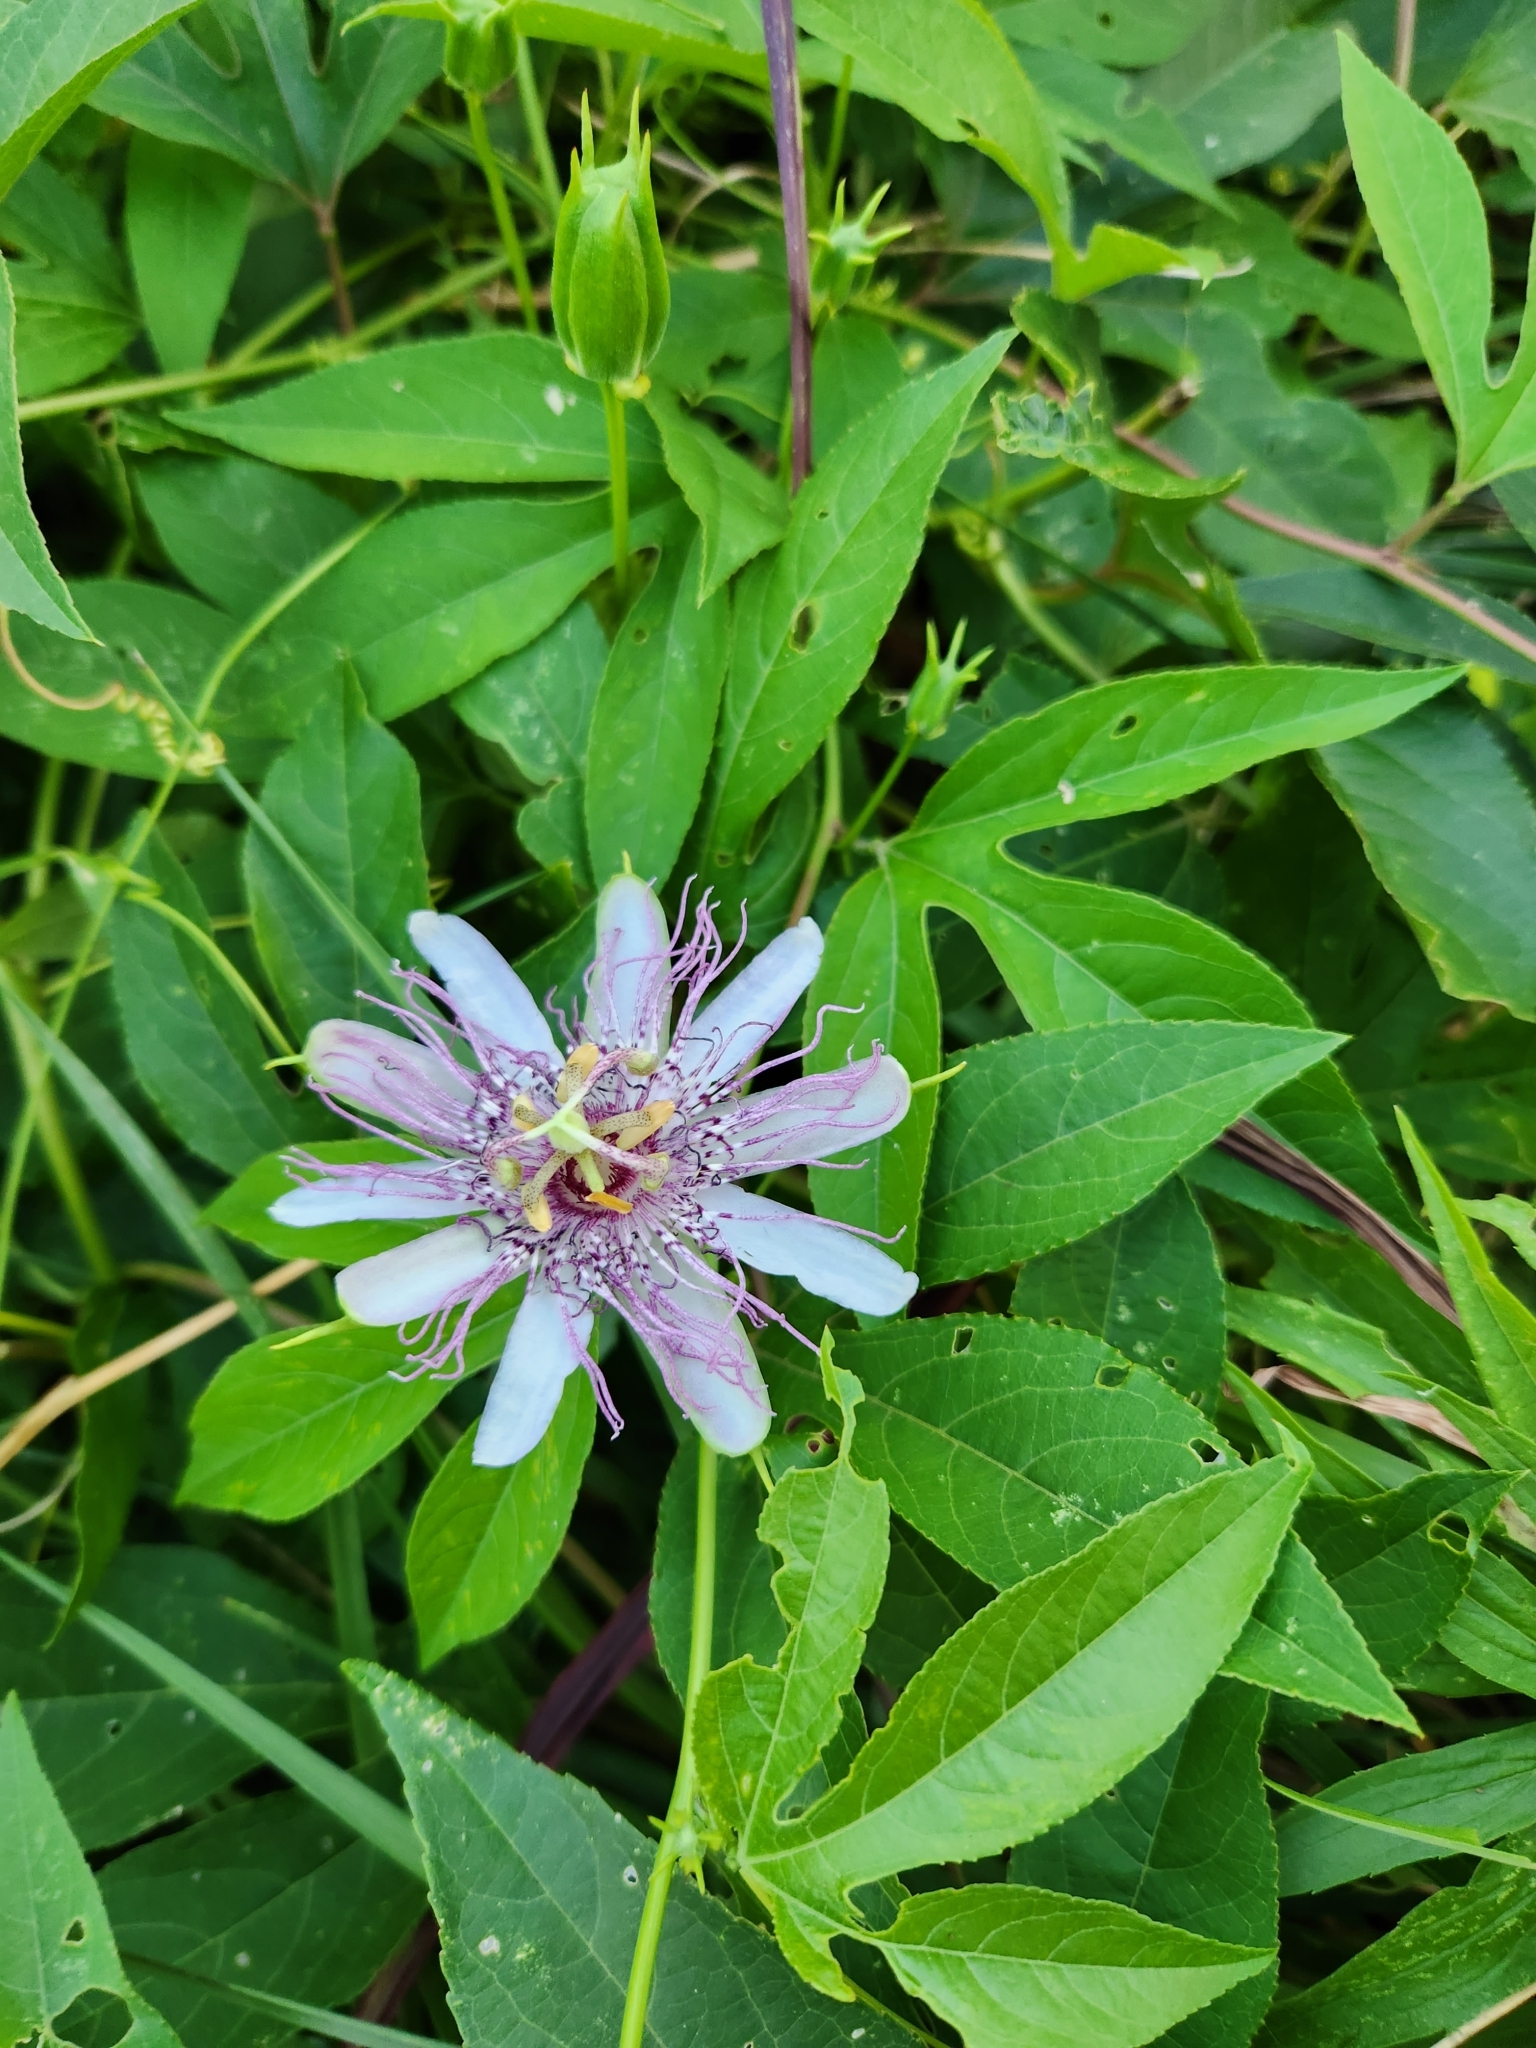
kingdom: Plantae
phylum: Tracheophyta
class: Magnoliopsida
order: Malpighiales
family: Passifloraceae
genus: Passiflora
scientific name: Passiflora incarnata
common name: Apricot-vine
